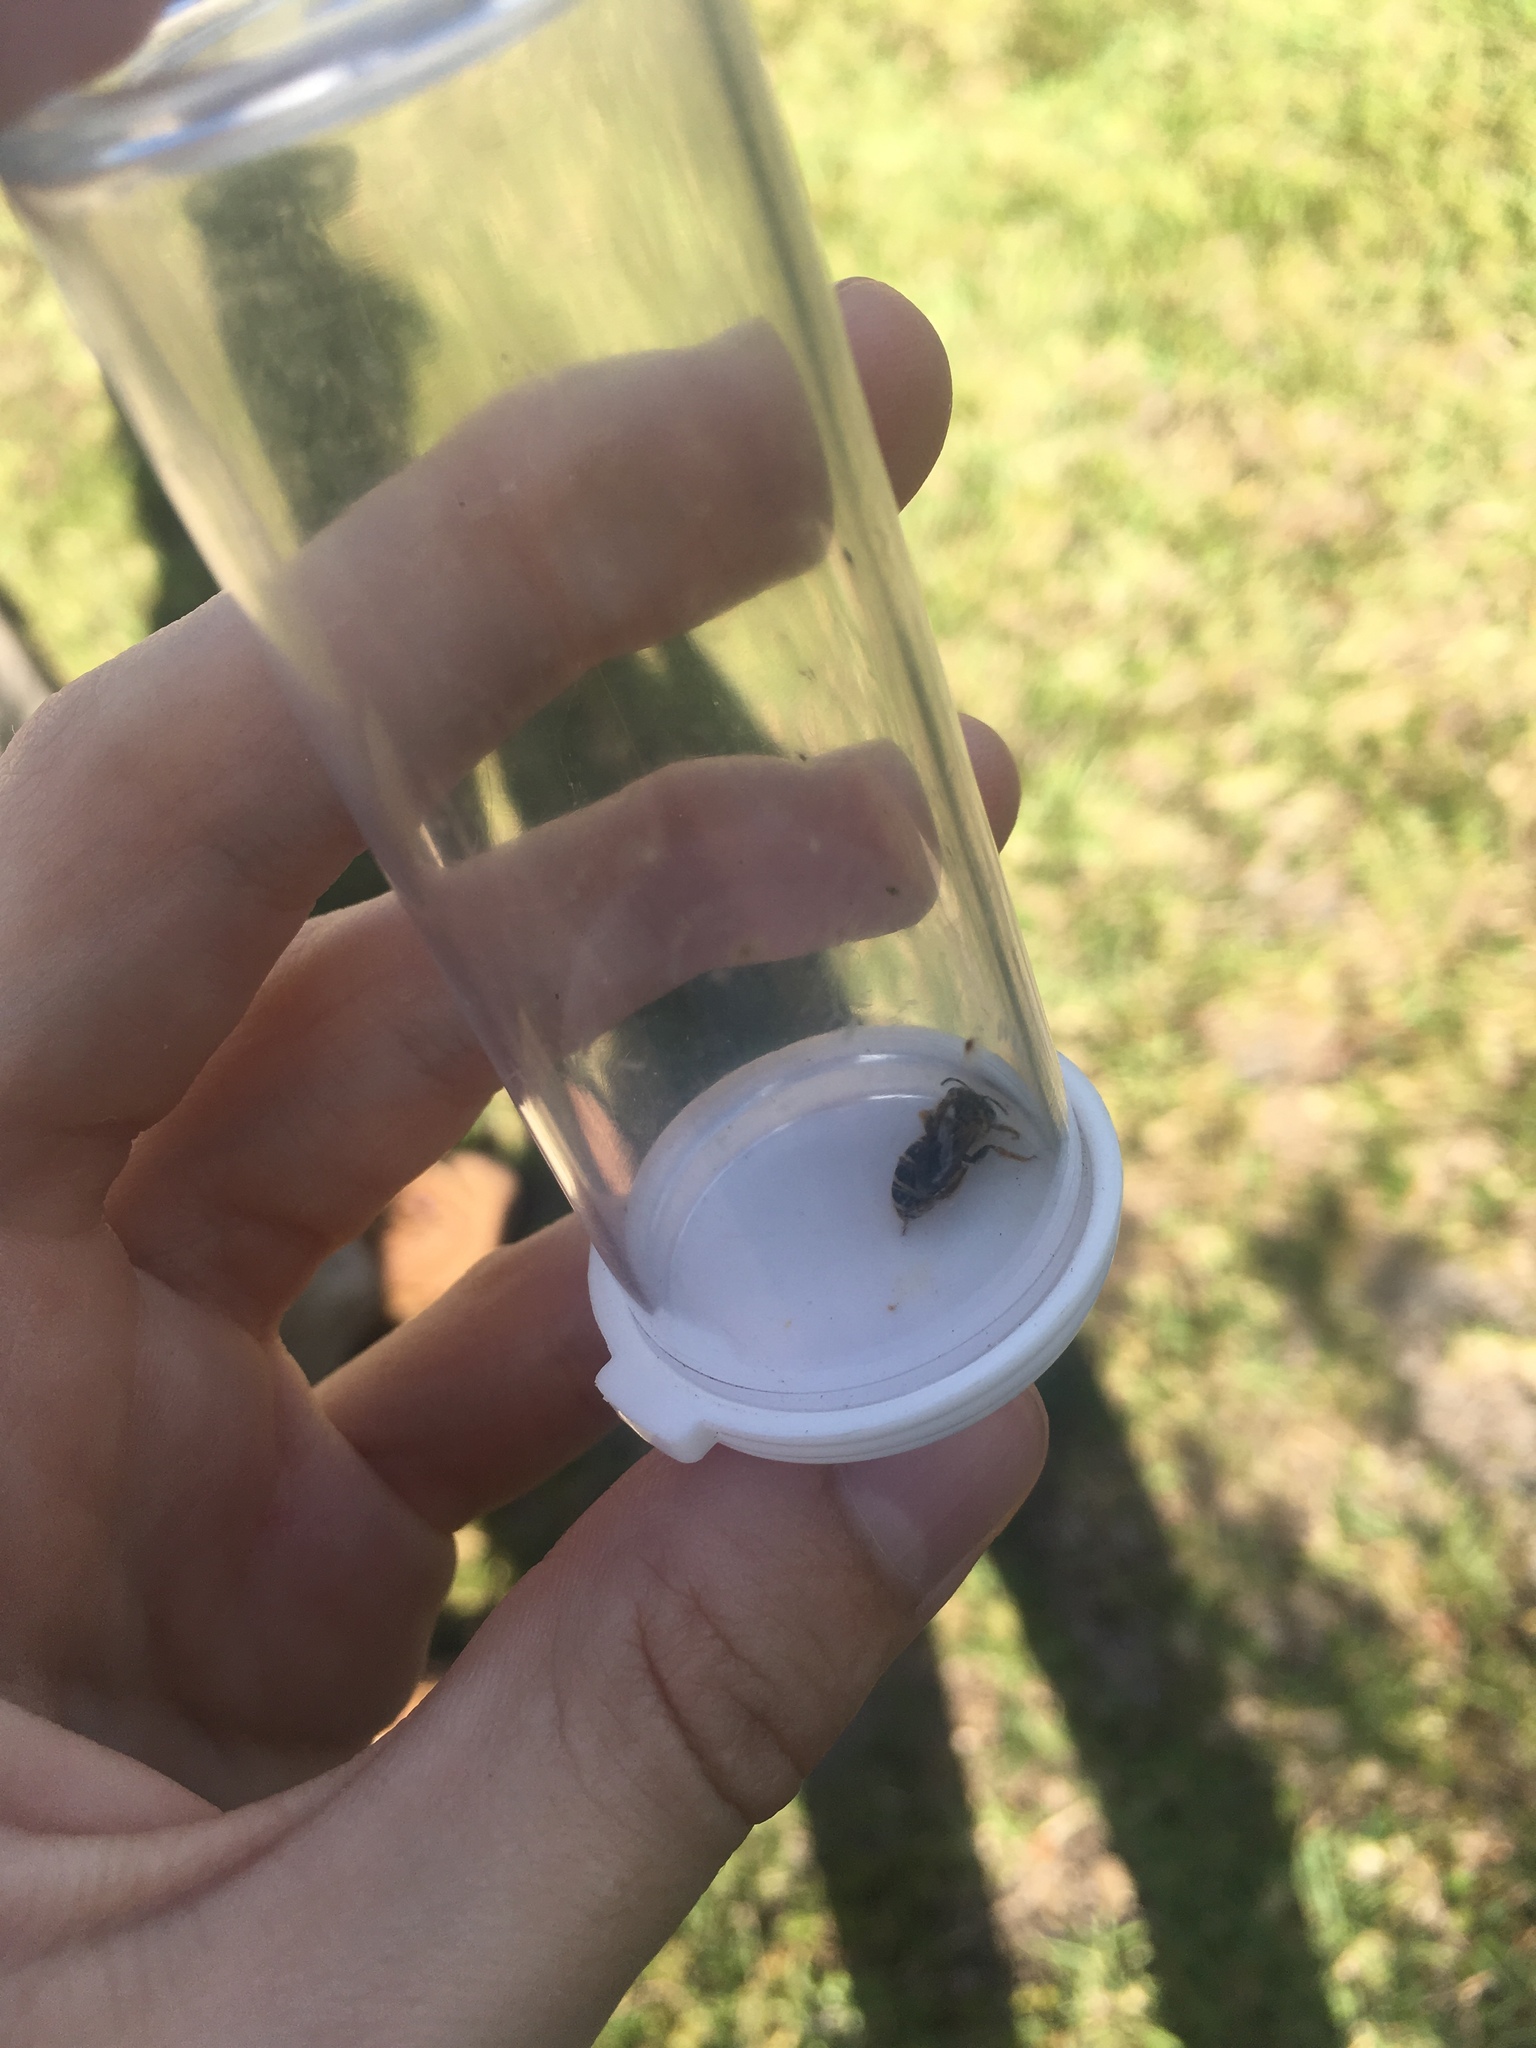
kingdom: Animalia
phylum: Arthropoda
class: Insecta
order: Hymenoptera
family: Halictidae
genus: Halictus
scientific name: Halictus poeyi
